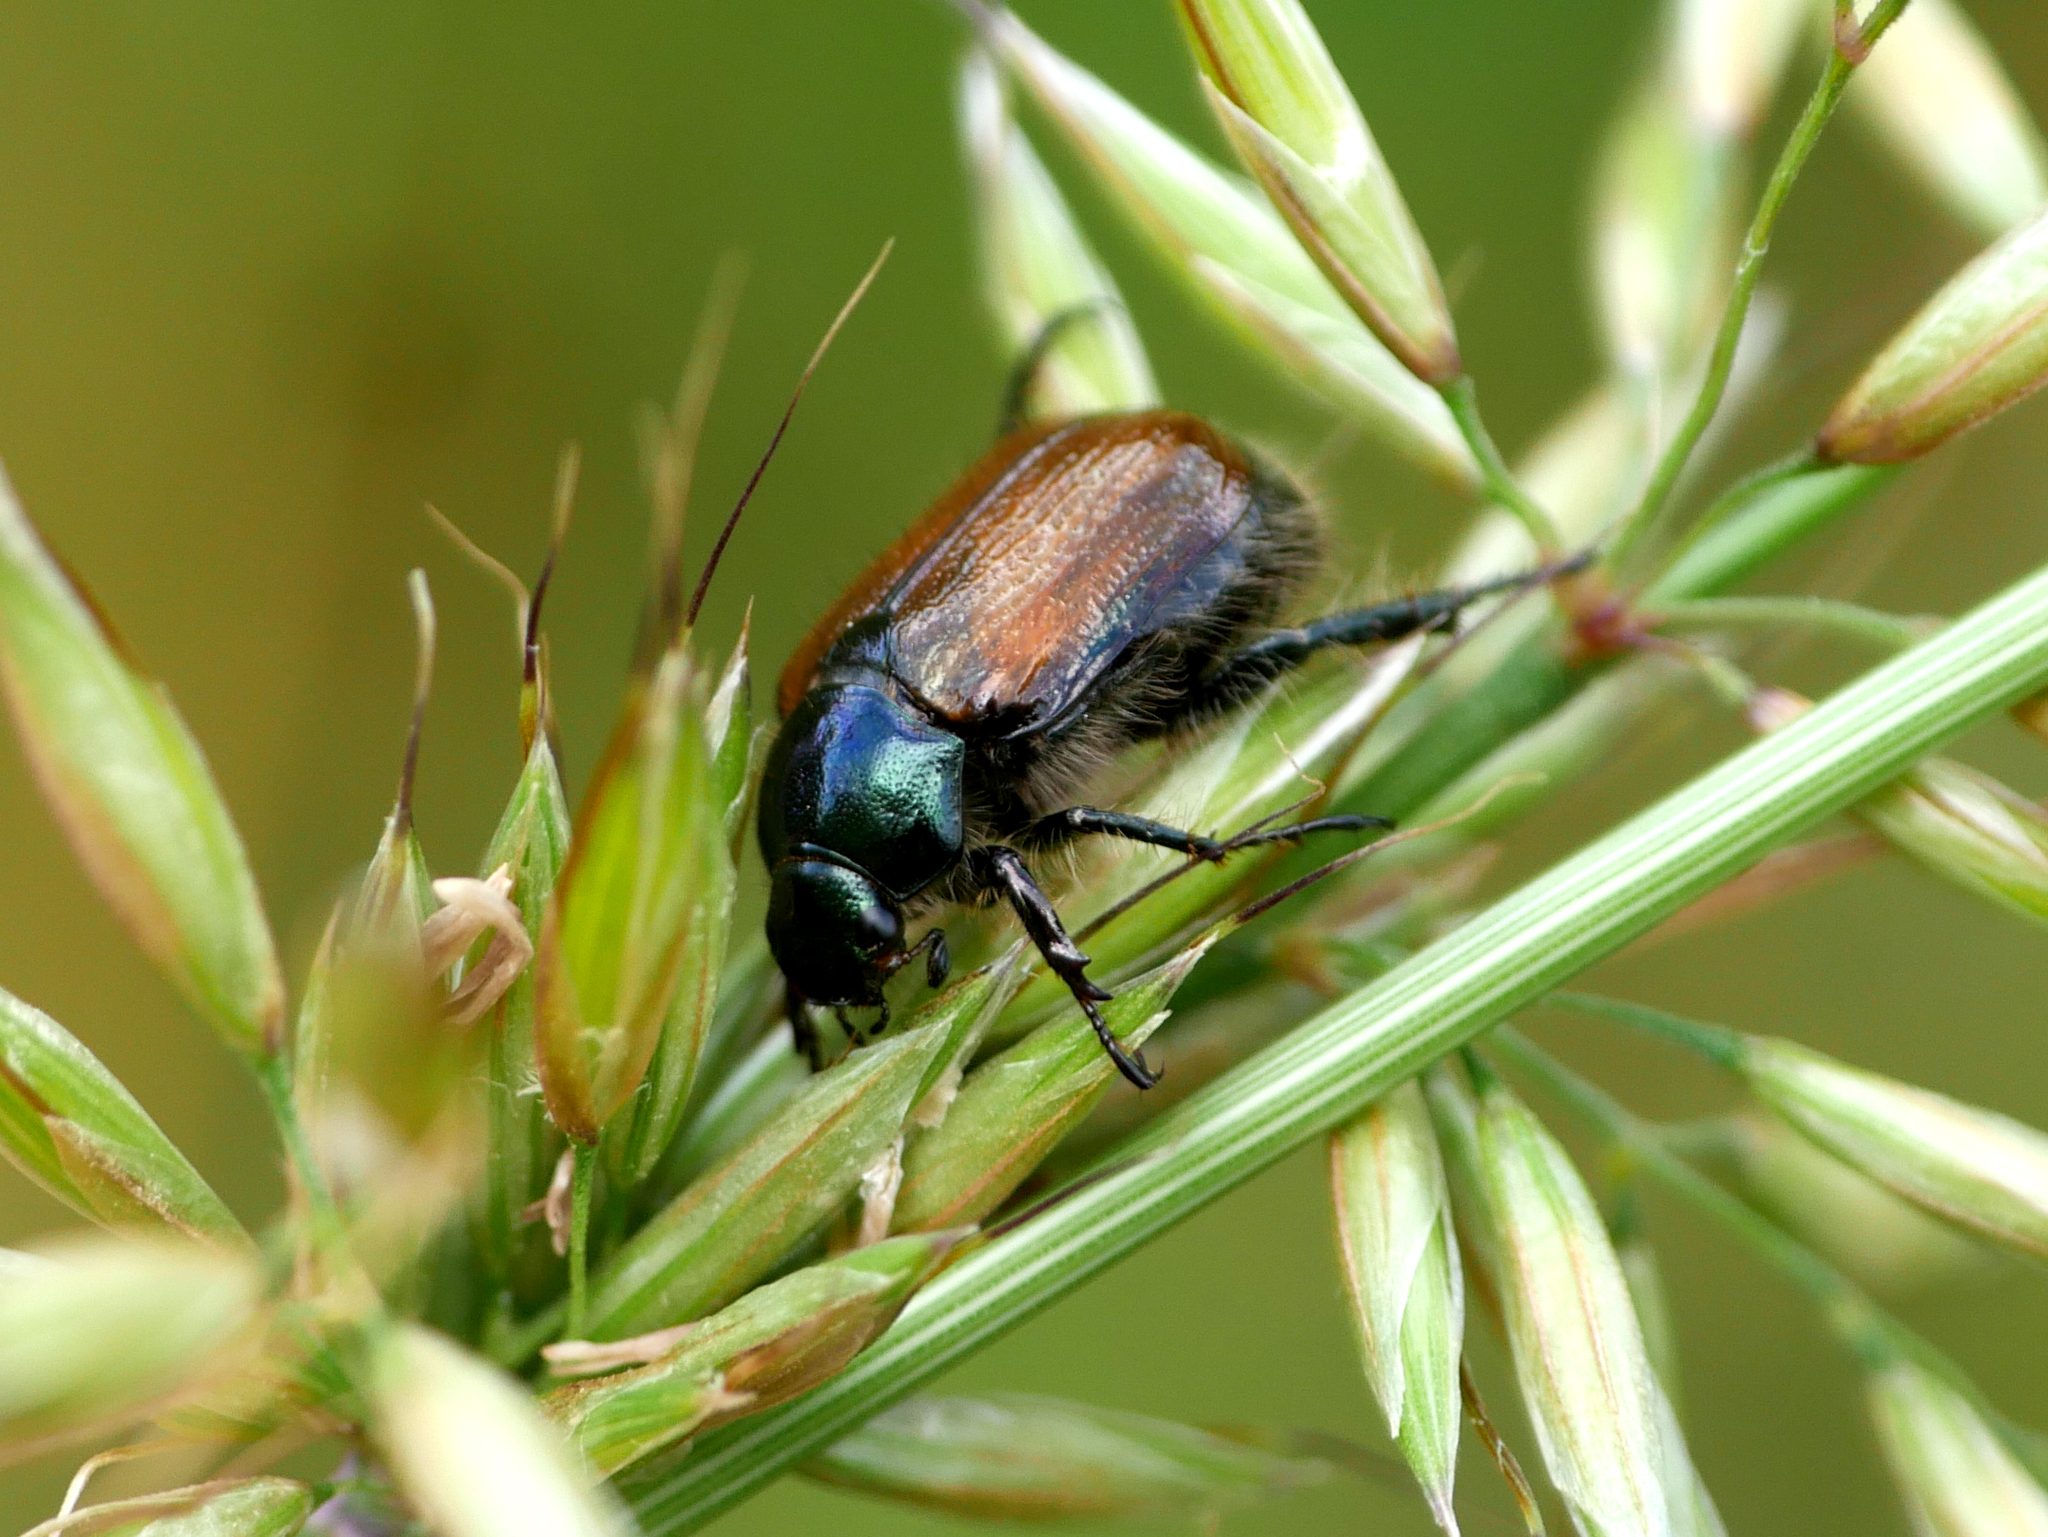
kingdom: Animalia
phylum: Arthropoda
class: Insecta
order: Coleoptera
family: Scarabaeidae
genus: Phyllopertha
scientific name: Phyllopertha horticola
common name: Garden chafer
